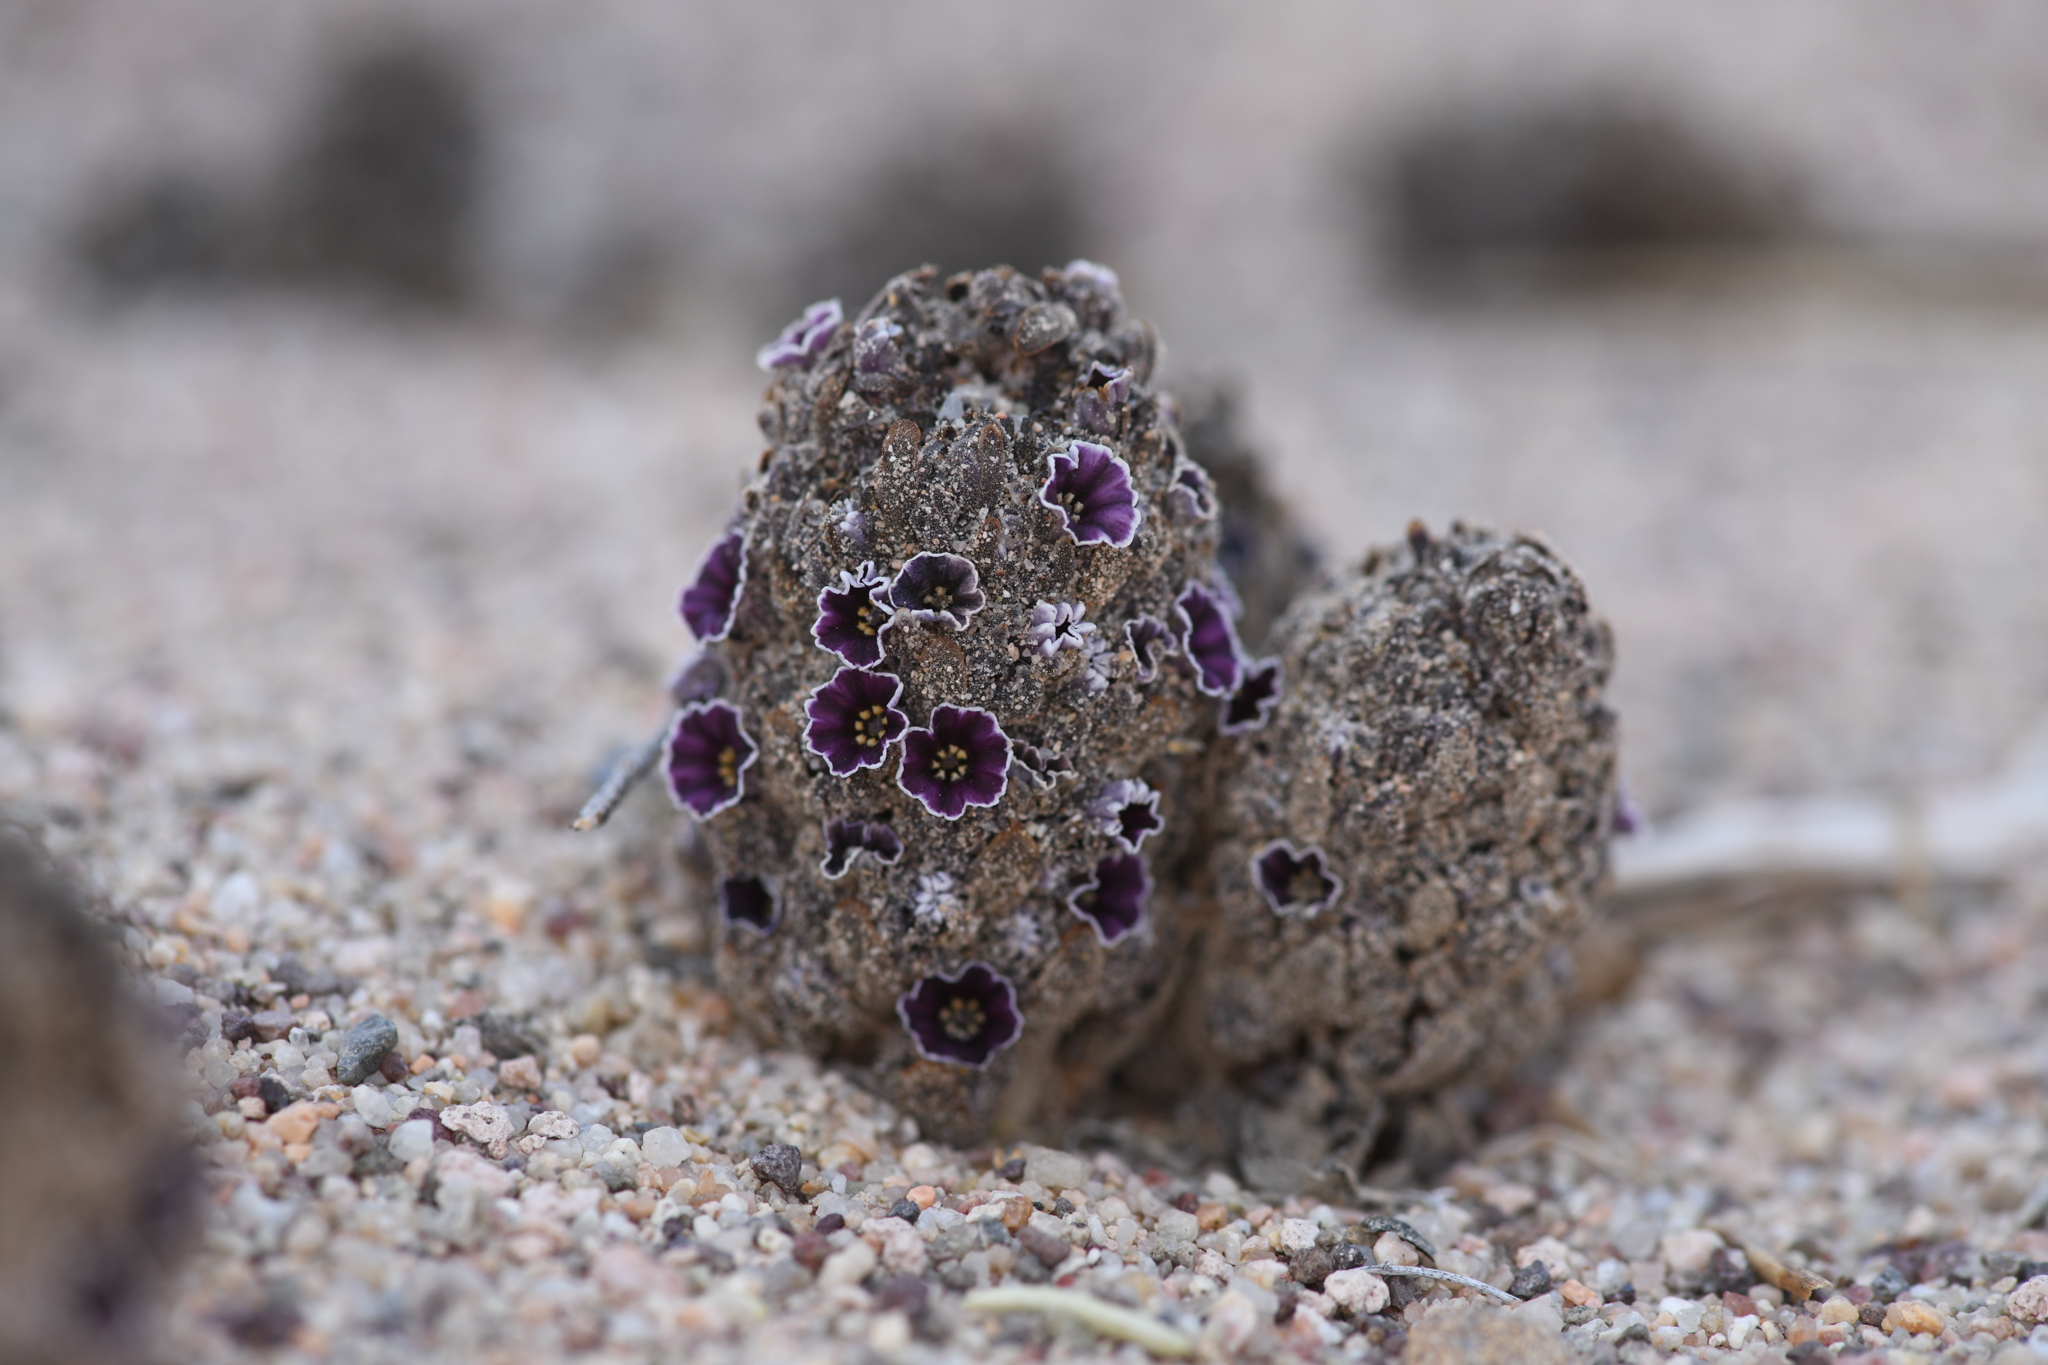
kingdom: Plantae
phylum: Tracheophyta
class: Magnoliopsida
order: Boraginales
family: Lennoaceae
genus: Pholisma
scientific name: Pholisma arenarium
